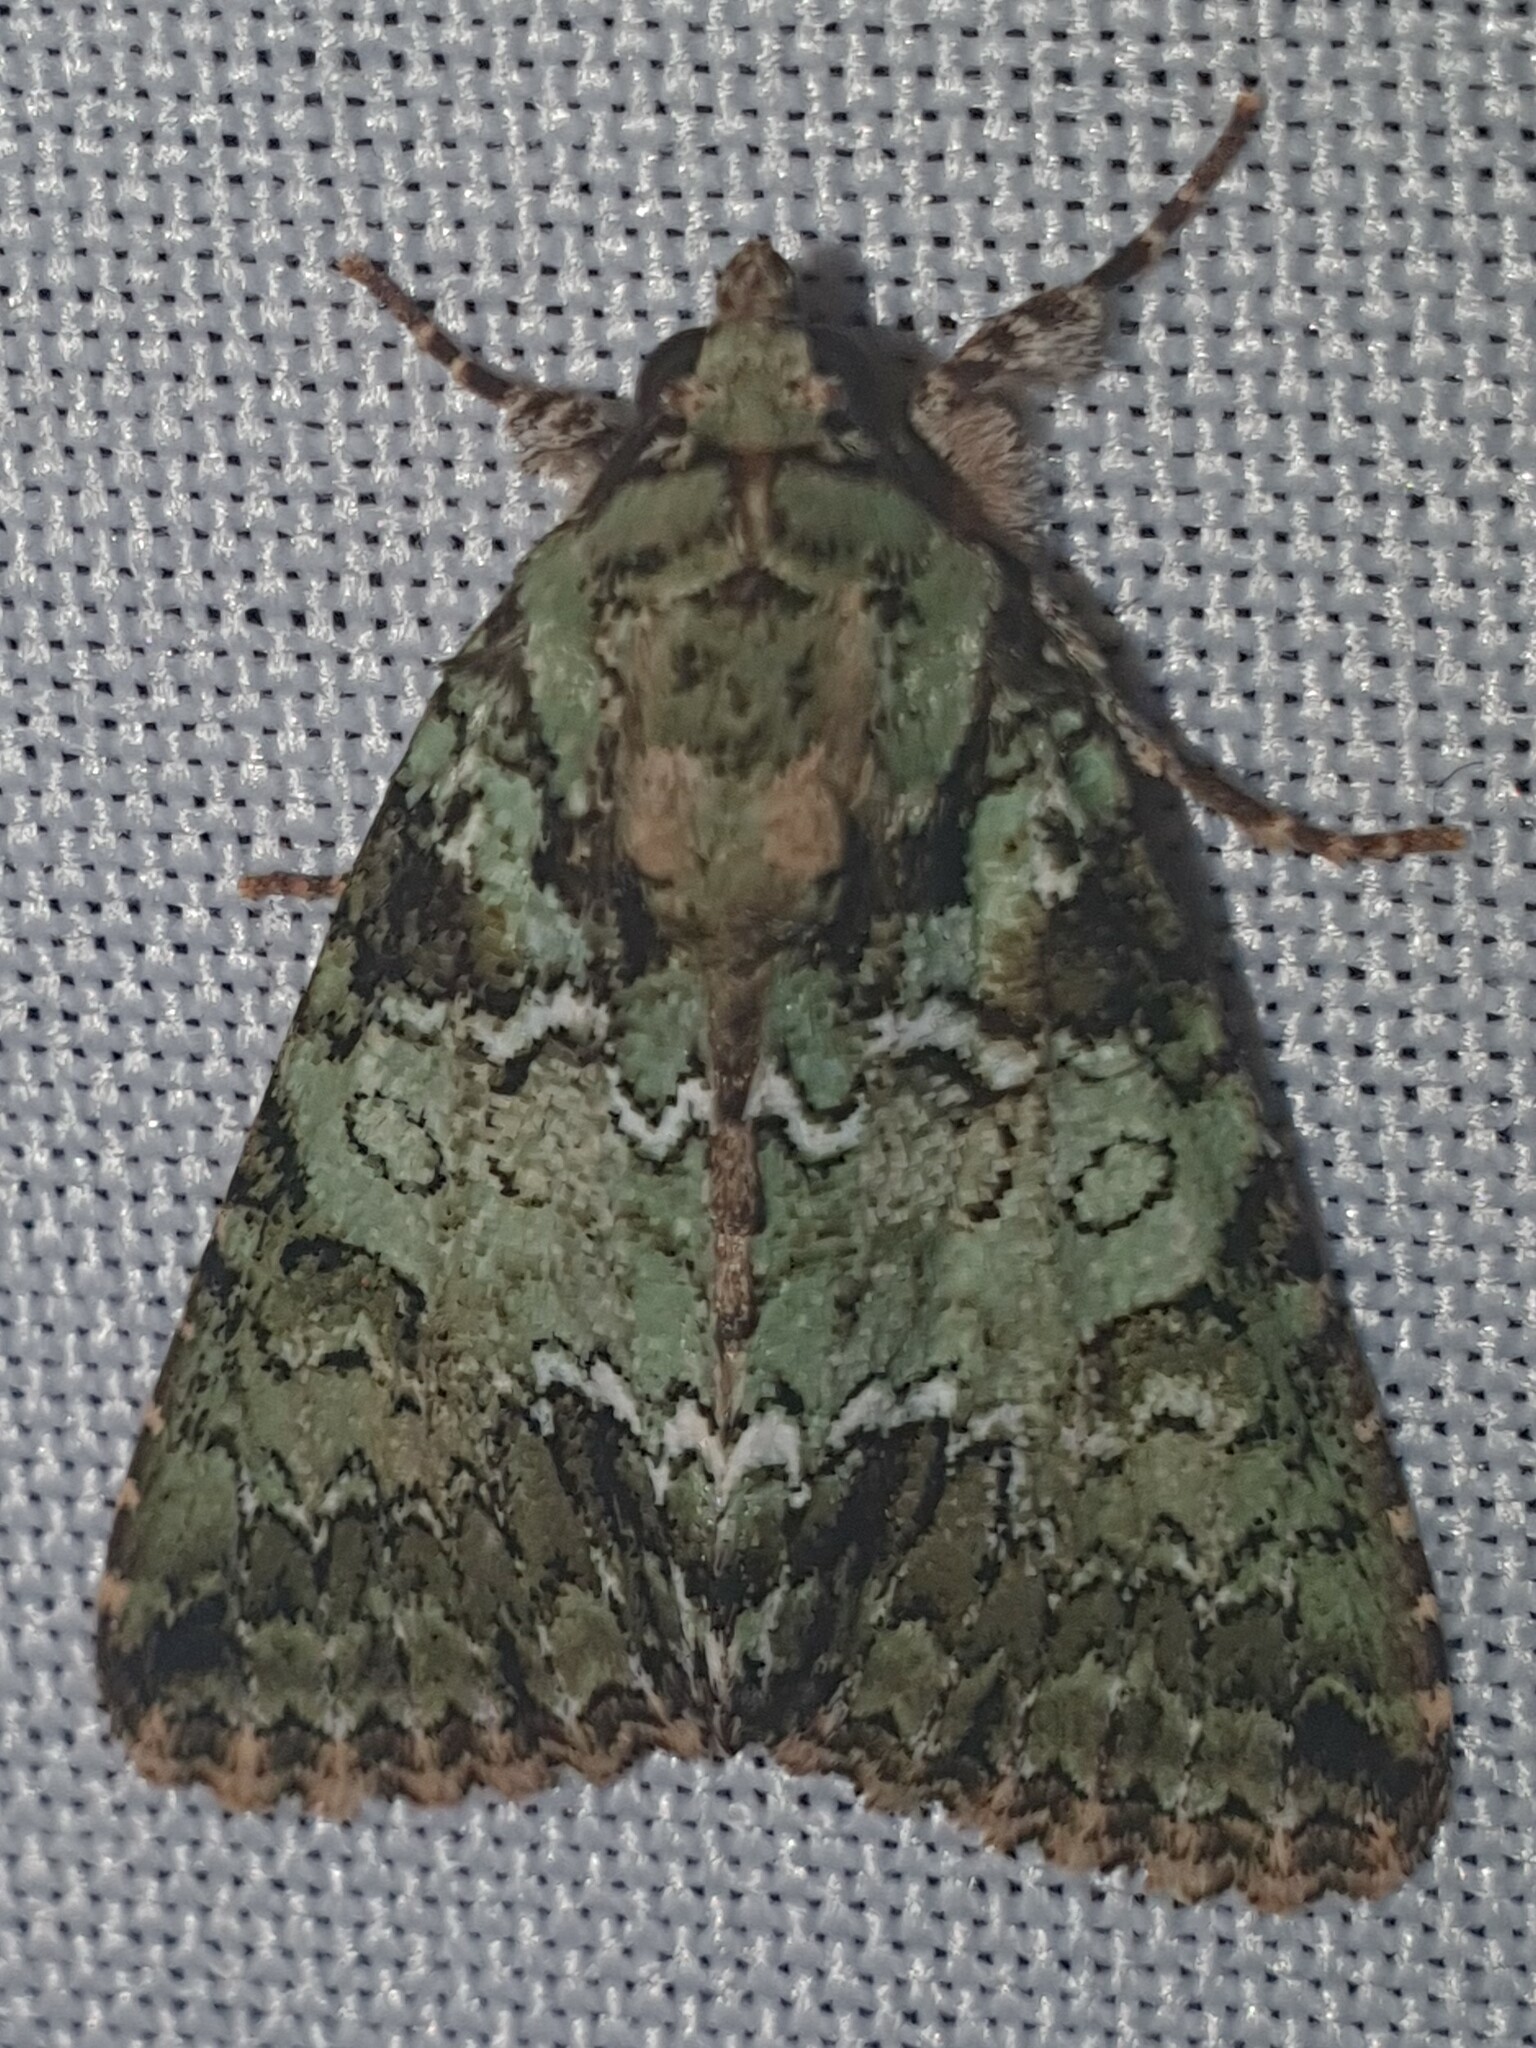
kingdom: Animalia
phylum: Arthropoda
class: Insecta
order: Lepidoptera
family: Noctuidae
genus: Polyphaenis
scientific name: Polyphaenis sericata
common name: Guernsey underwing
